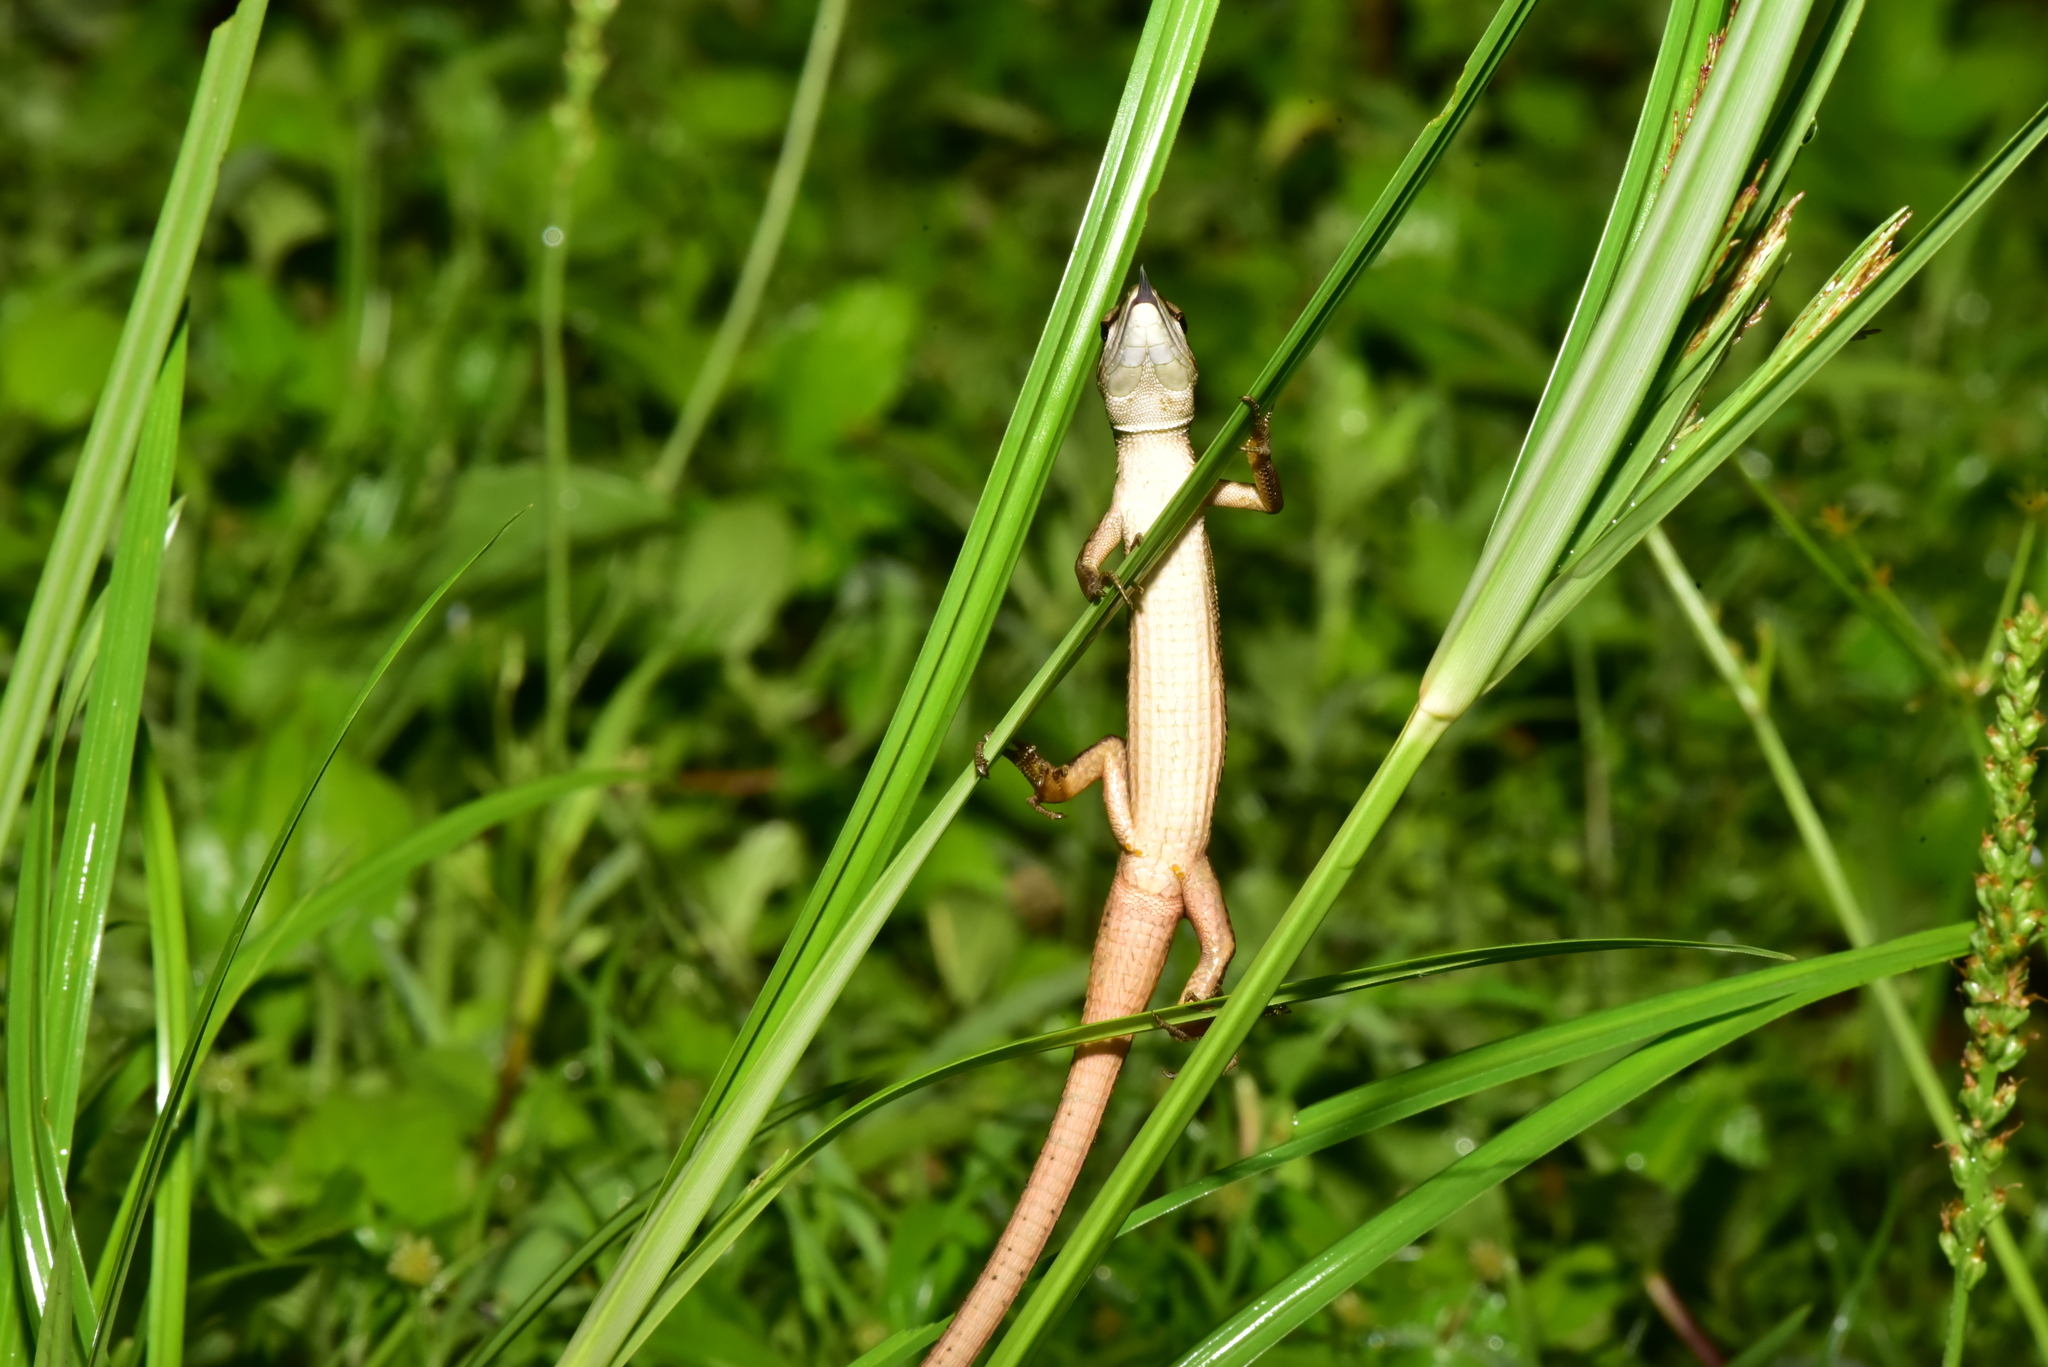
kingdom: Animalia
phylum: Chordata
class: Squamata
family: Lacertidae
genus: Takydromus
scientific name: Takydromus viridipunctatus
